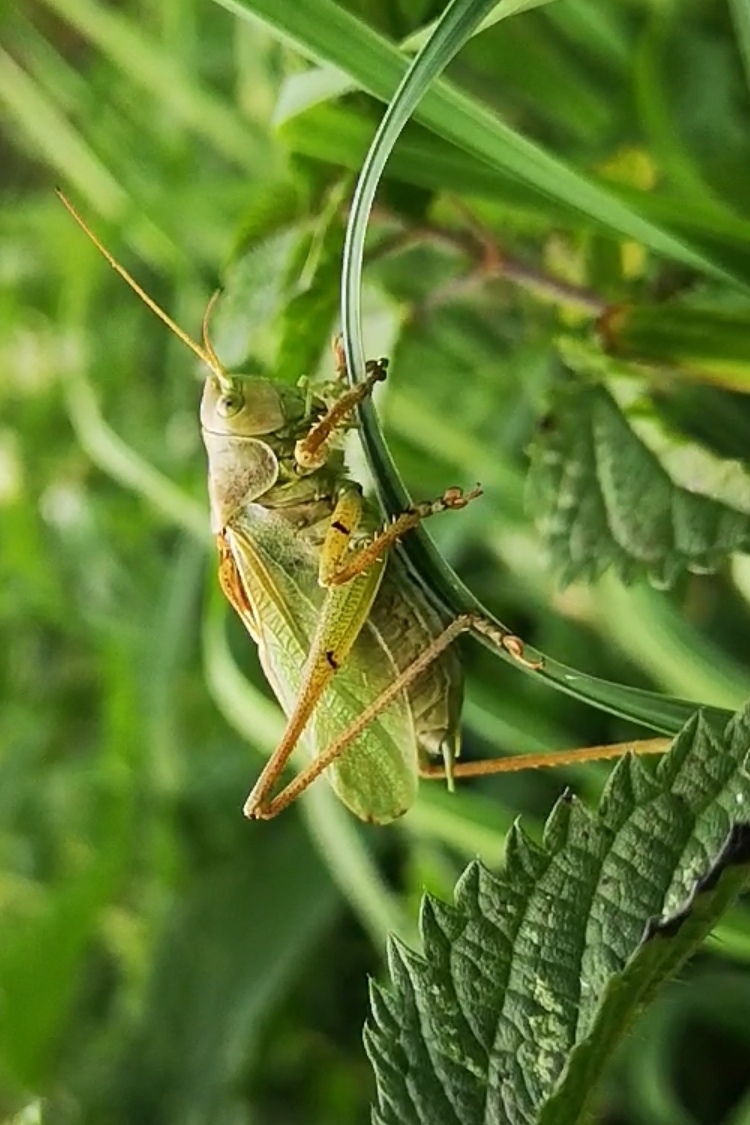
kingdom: Animalia
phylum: Arthropoda
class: Insecta
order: Orthoptera
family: Tettigoniidae
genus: Tettigonia
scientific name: Tettigonia cantans
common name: Upland green bush-cricket
